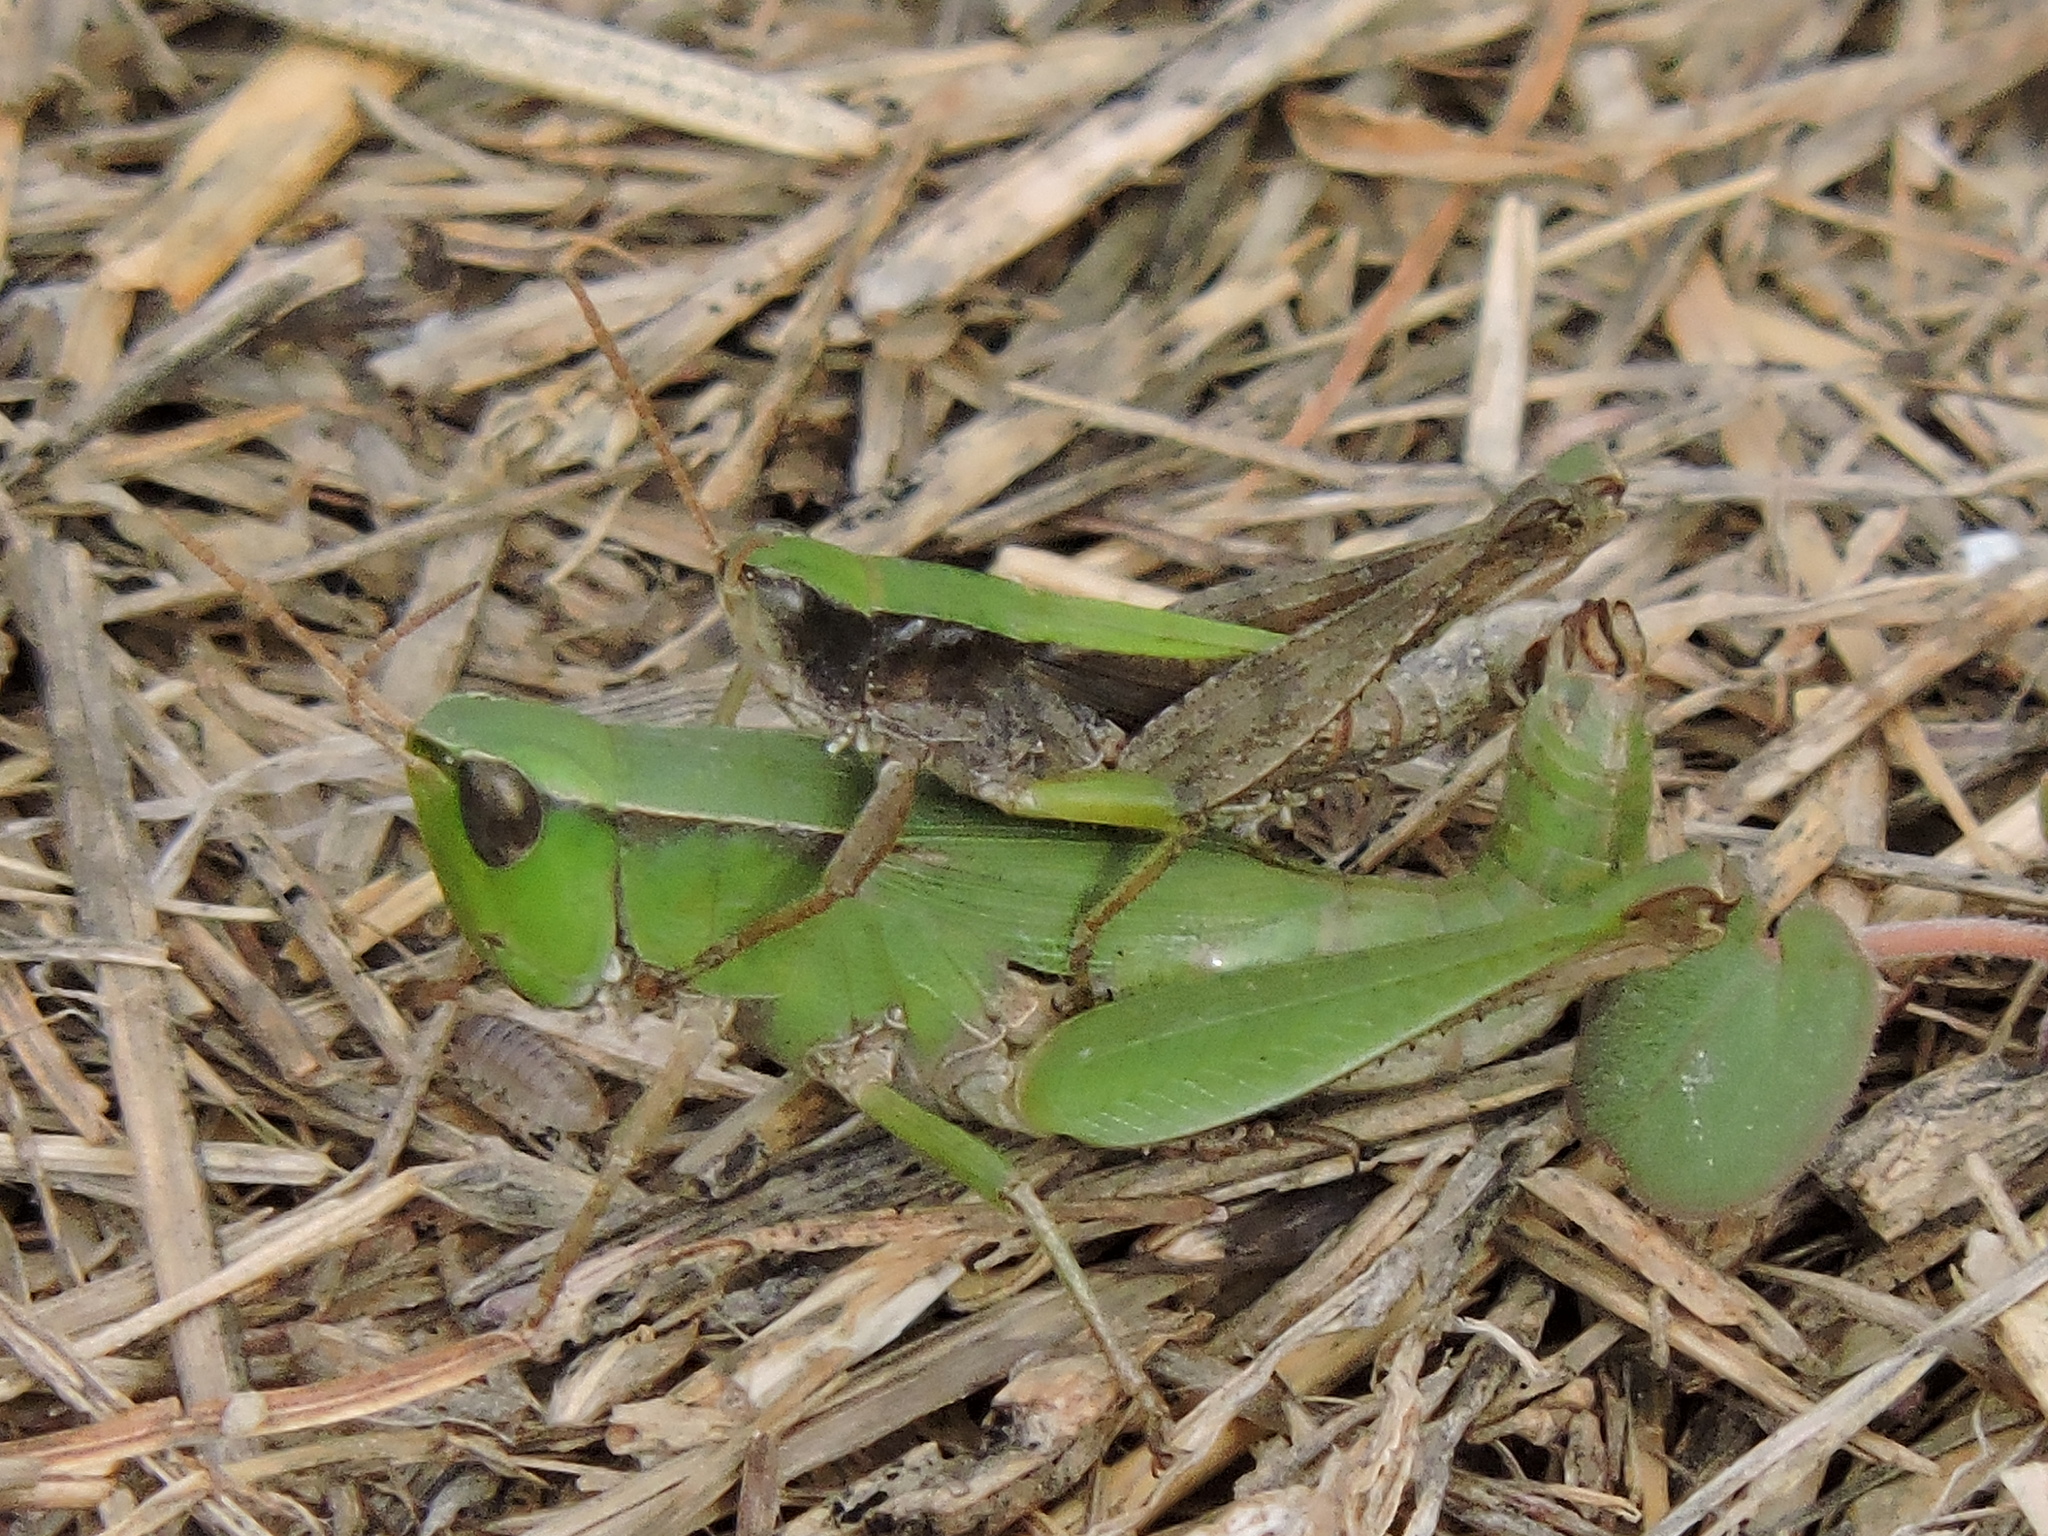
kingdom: Animalia
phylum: Arthropoda
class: Insecta
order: Orthoptera
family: Acrididae
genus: Dichromorpha
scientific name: Dichromorpha viridis
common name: Short-winged green grasshopper
